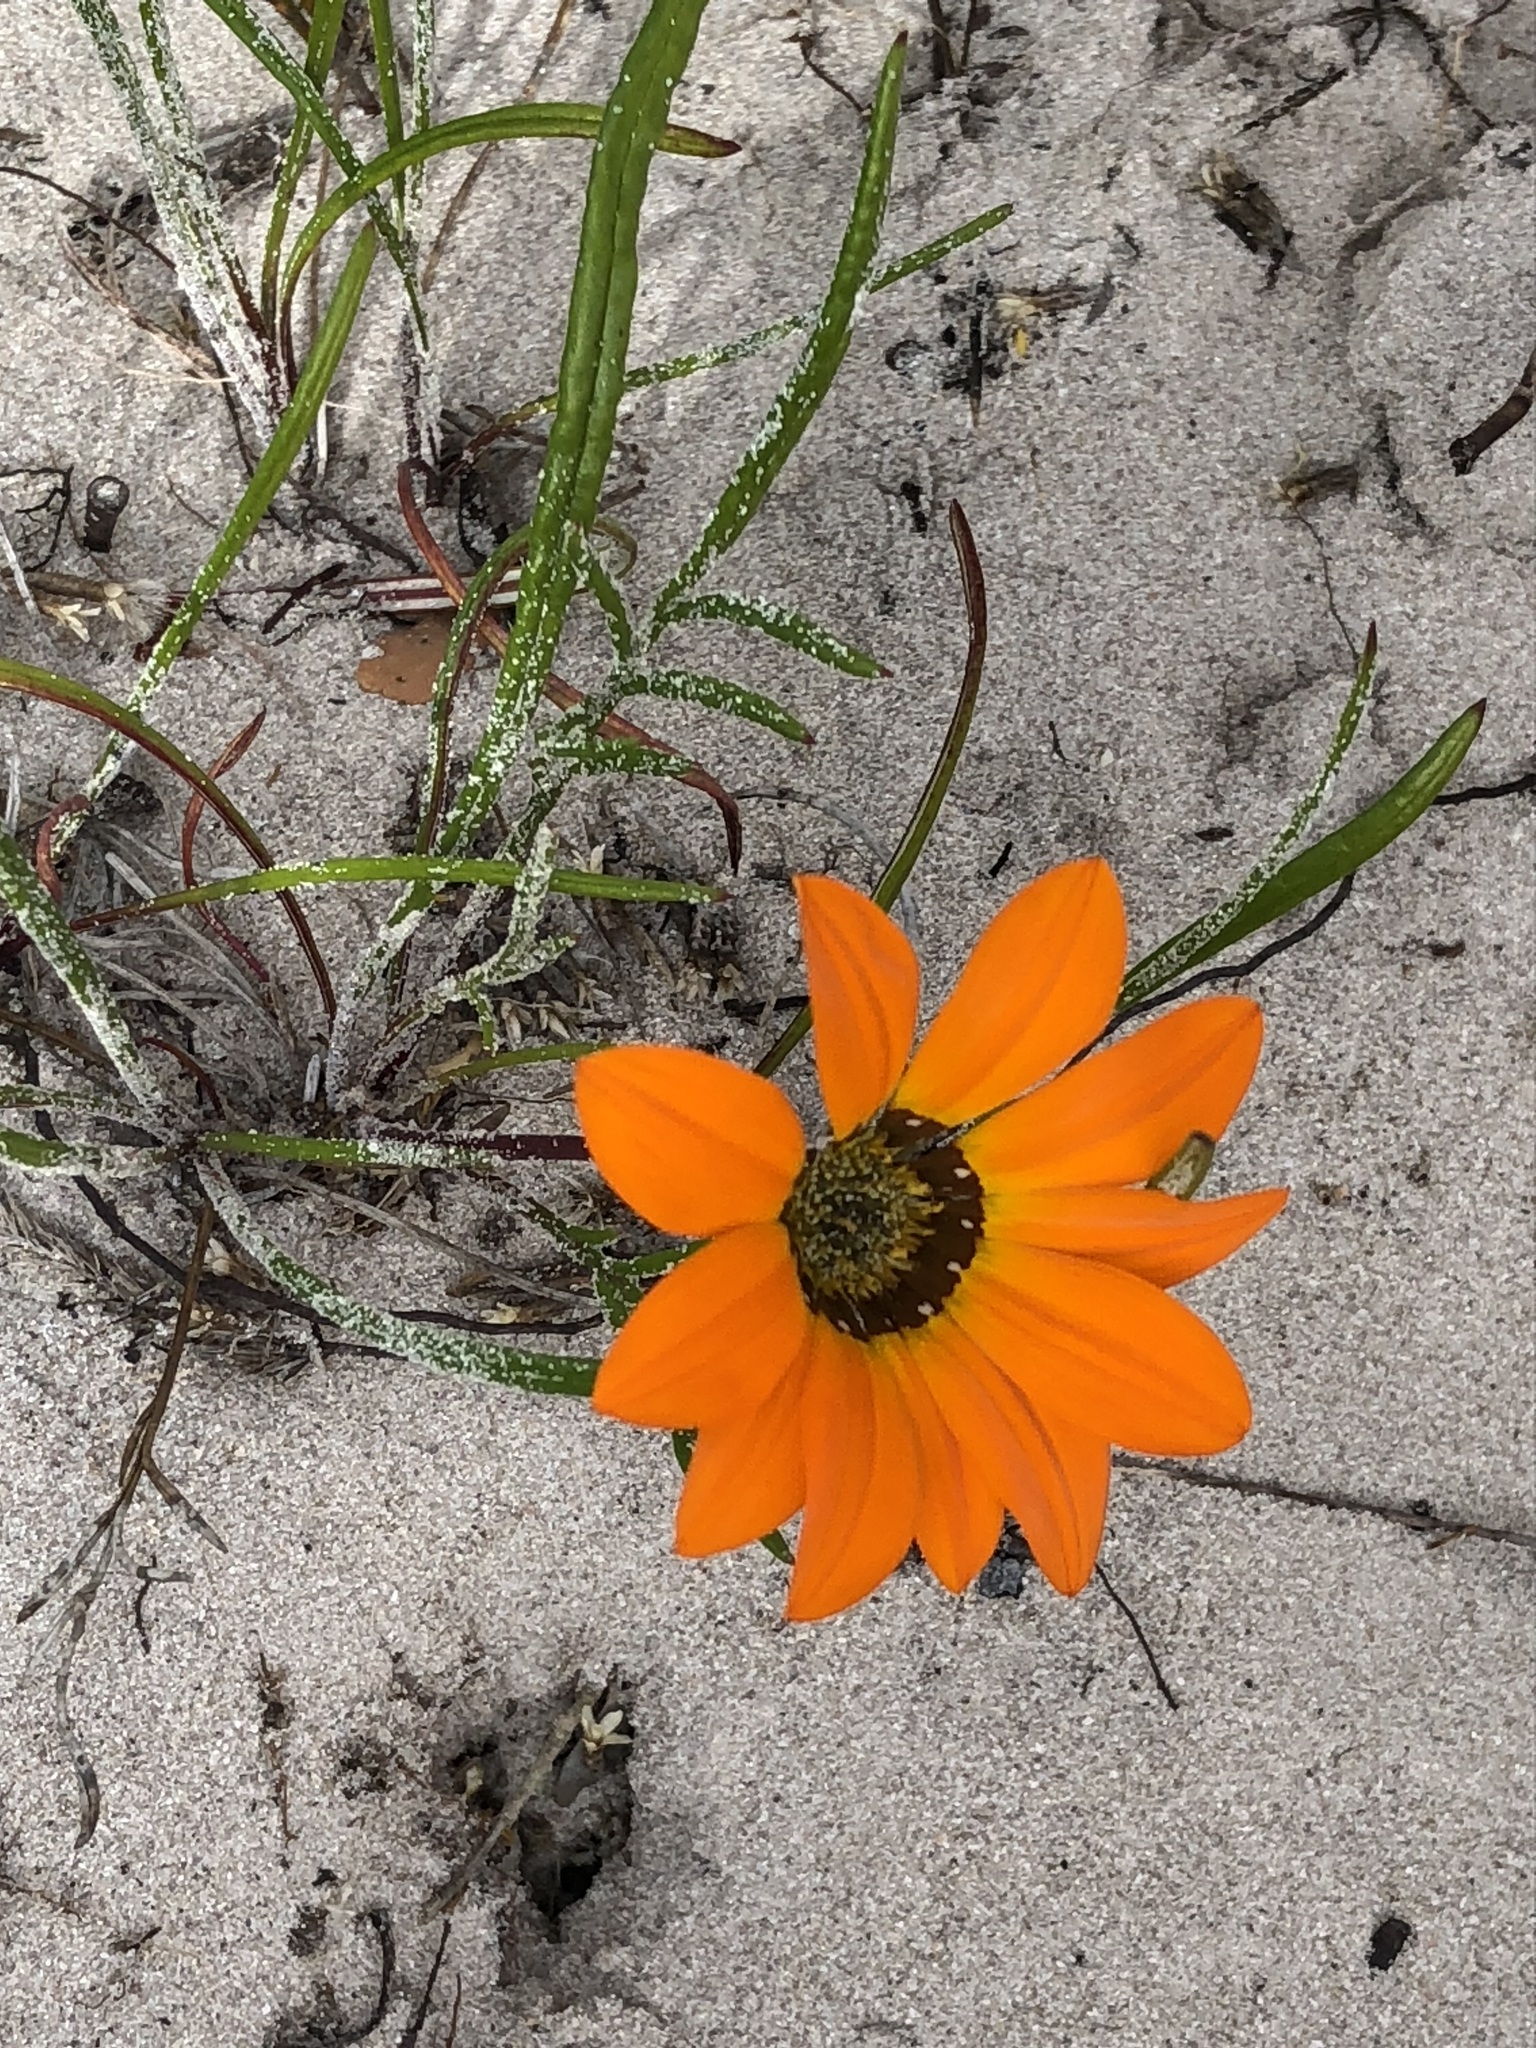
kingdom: Plantae
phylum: Tracheophyta
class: Magnoliopsida
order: Asterales
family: Asteraceae
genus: Gazania
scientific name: Gazania pectinata
